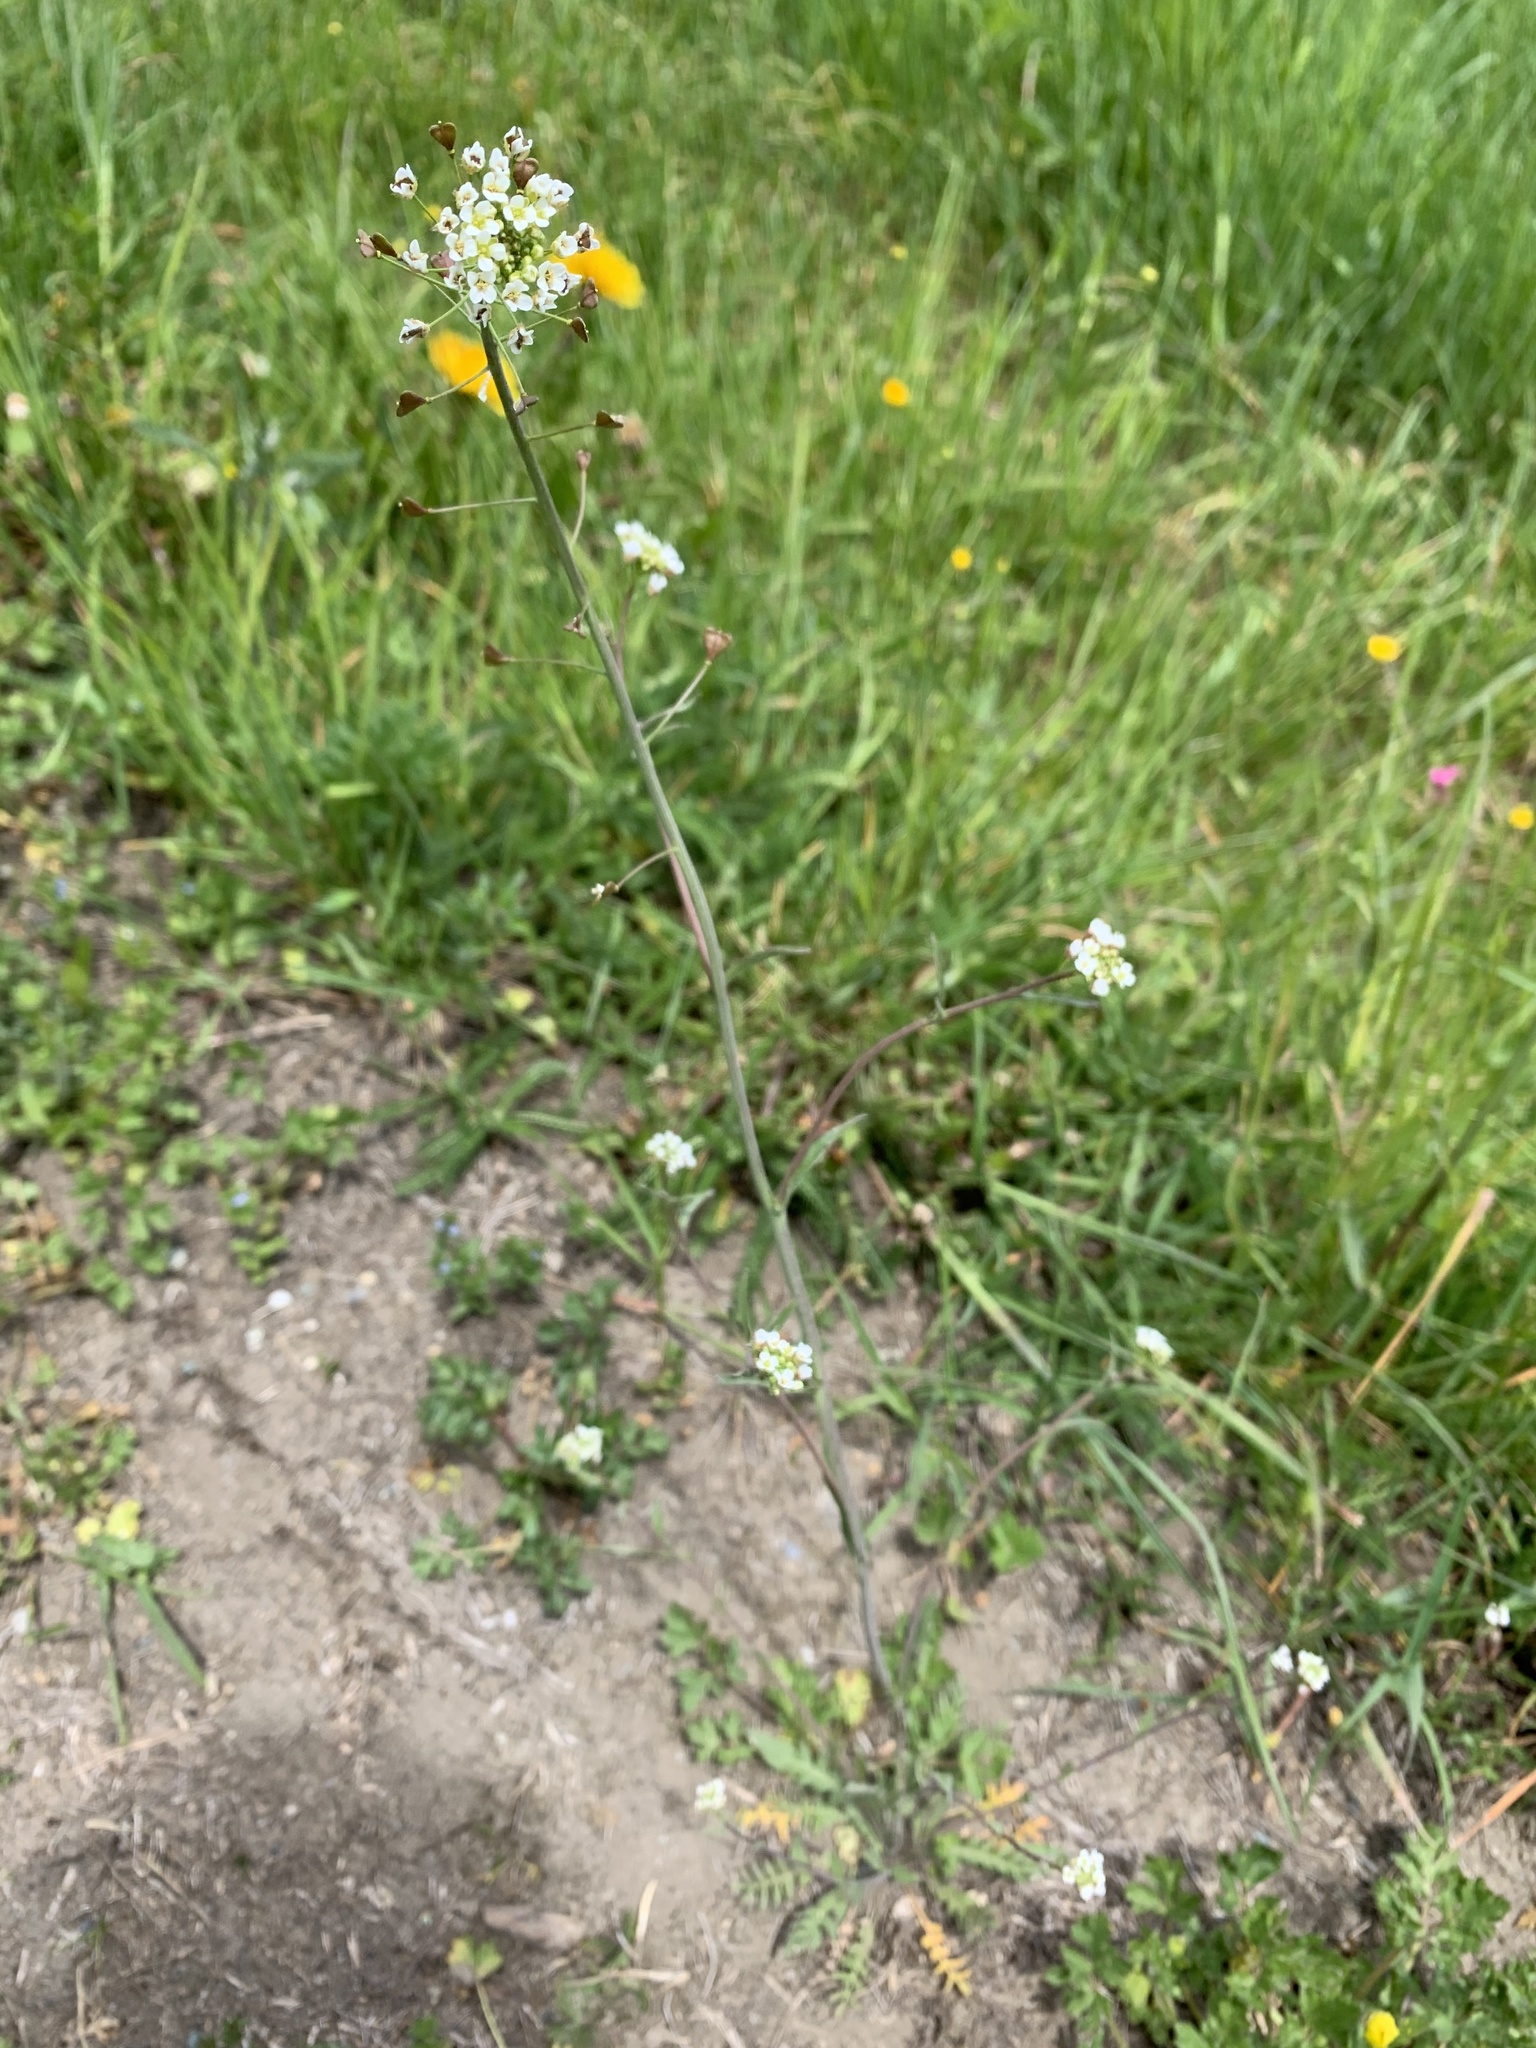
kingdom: Plantae
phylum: Tracheophyta
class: Magnoliopsida
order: Brassicales
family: Brassicaceae
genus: Capsella
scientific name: Capsella bursa-pastoris
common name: Shepherd's purse
